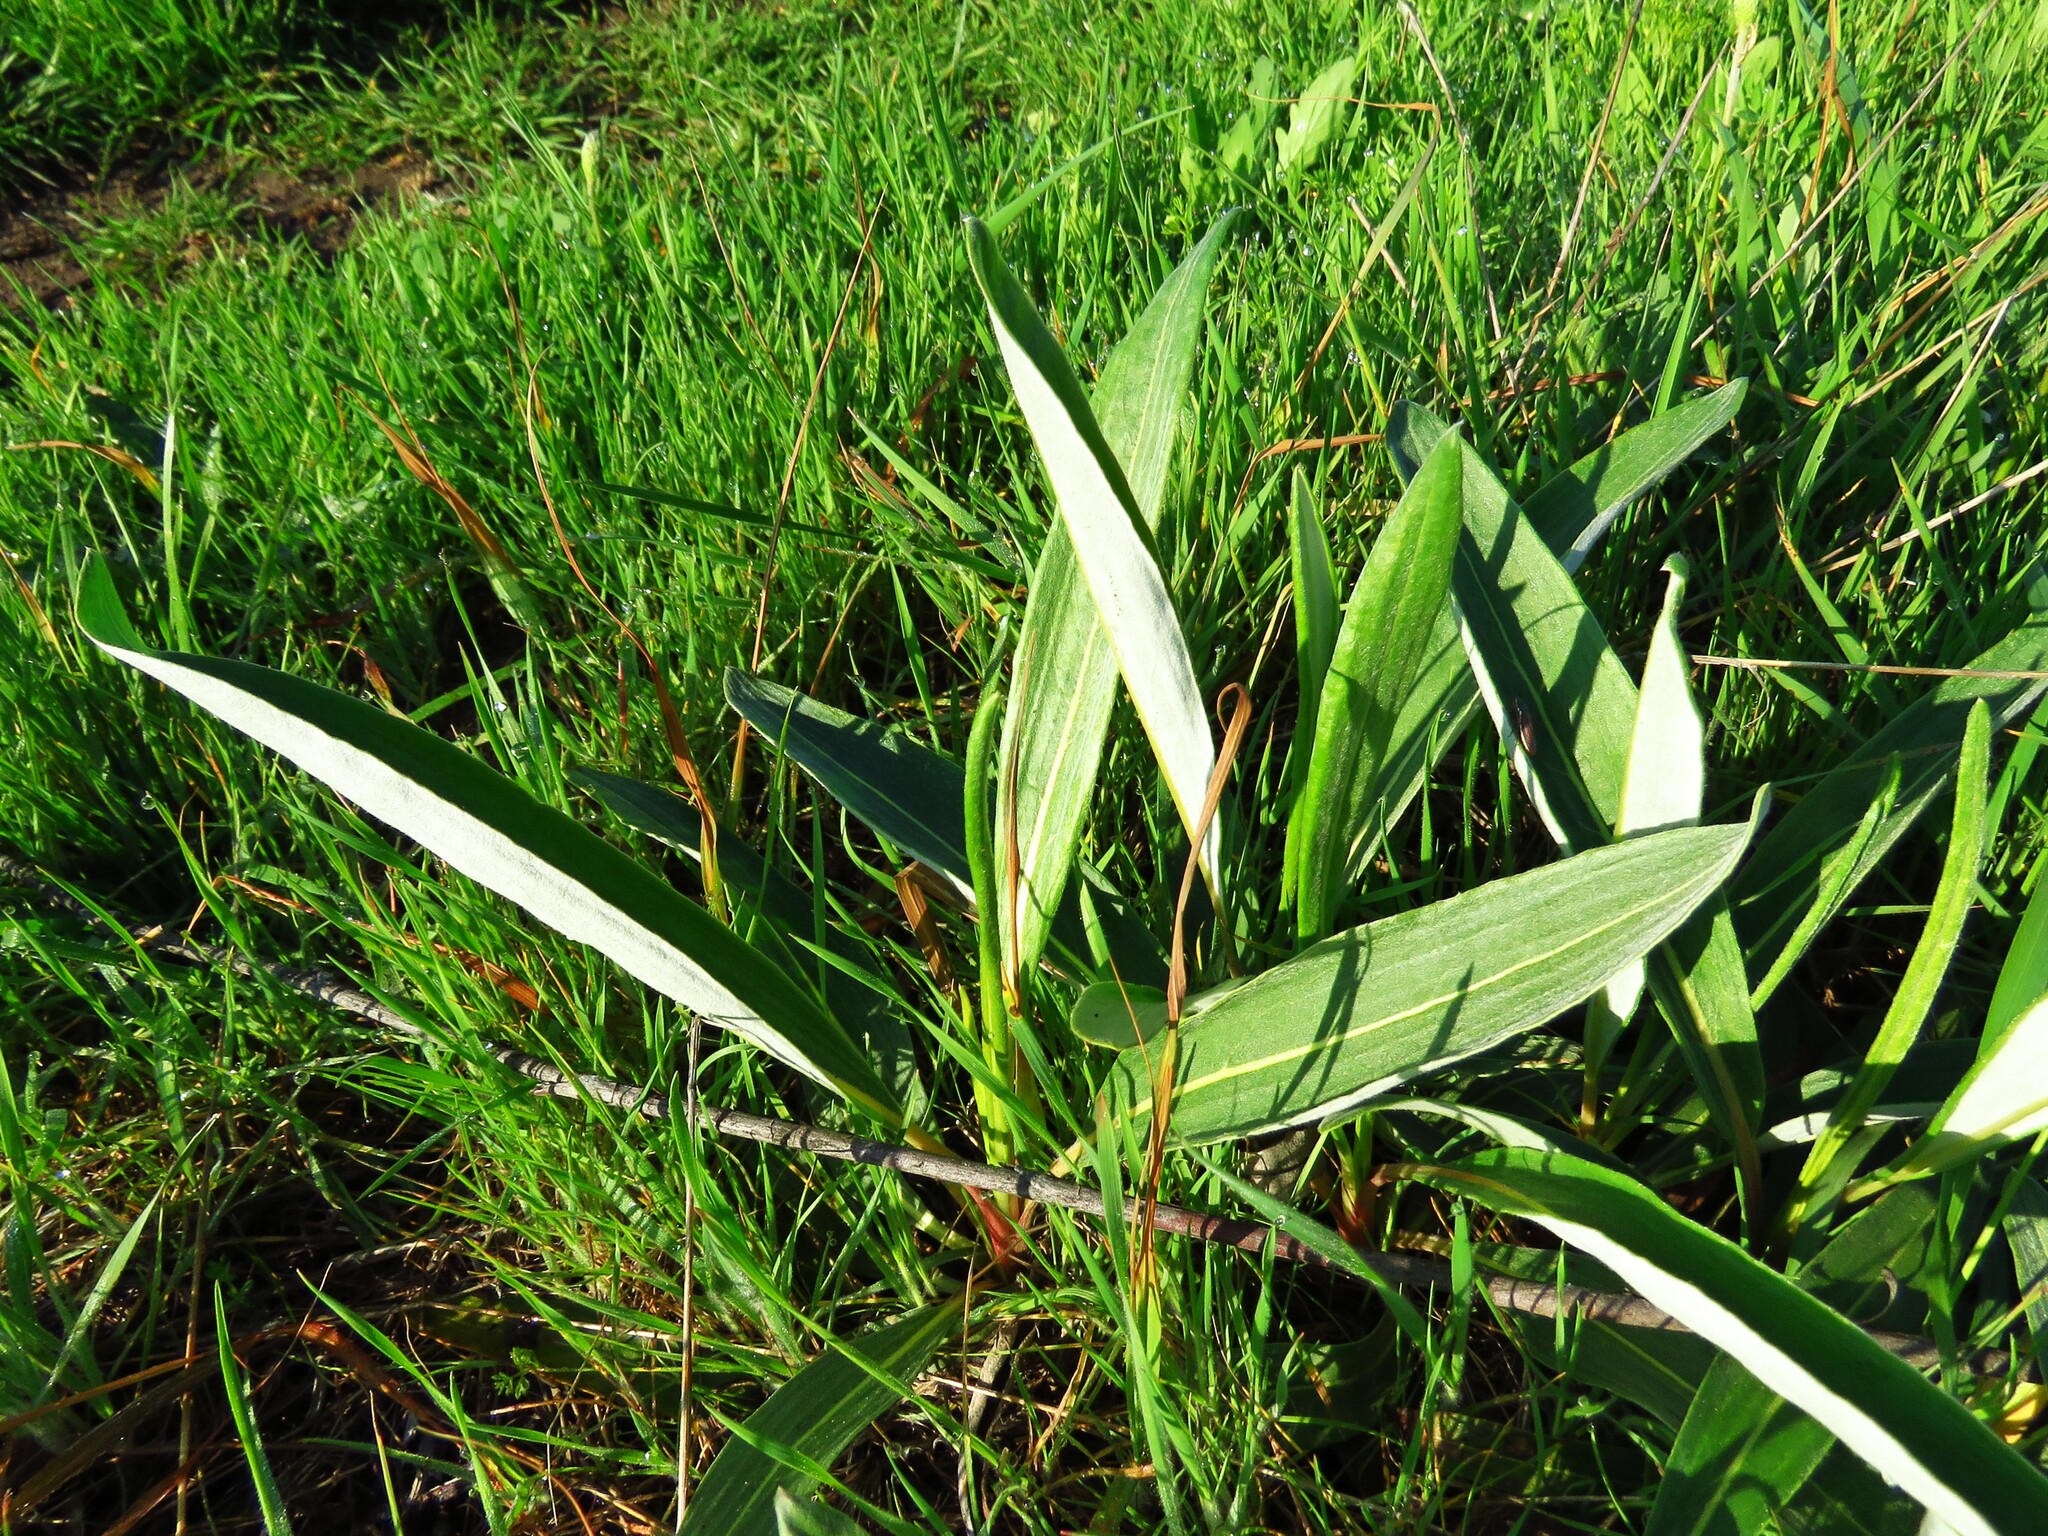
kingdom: Plantae
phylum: Tracheophyta
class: Magnoliopsida
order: Caryophyllales
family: Polygonaceae
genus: Eriogonum
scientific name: Eriogonum longifolium
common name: Longleaf wild buckwheat
